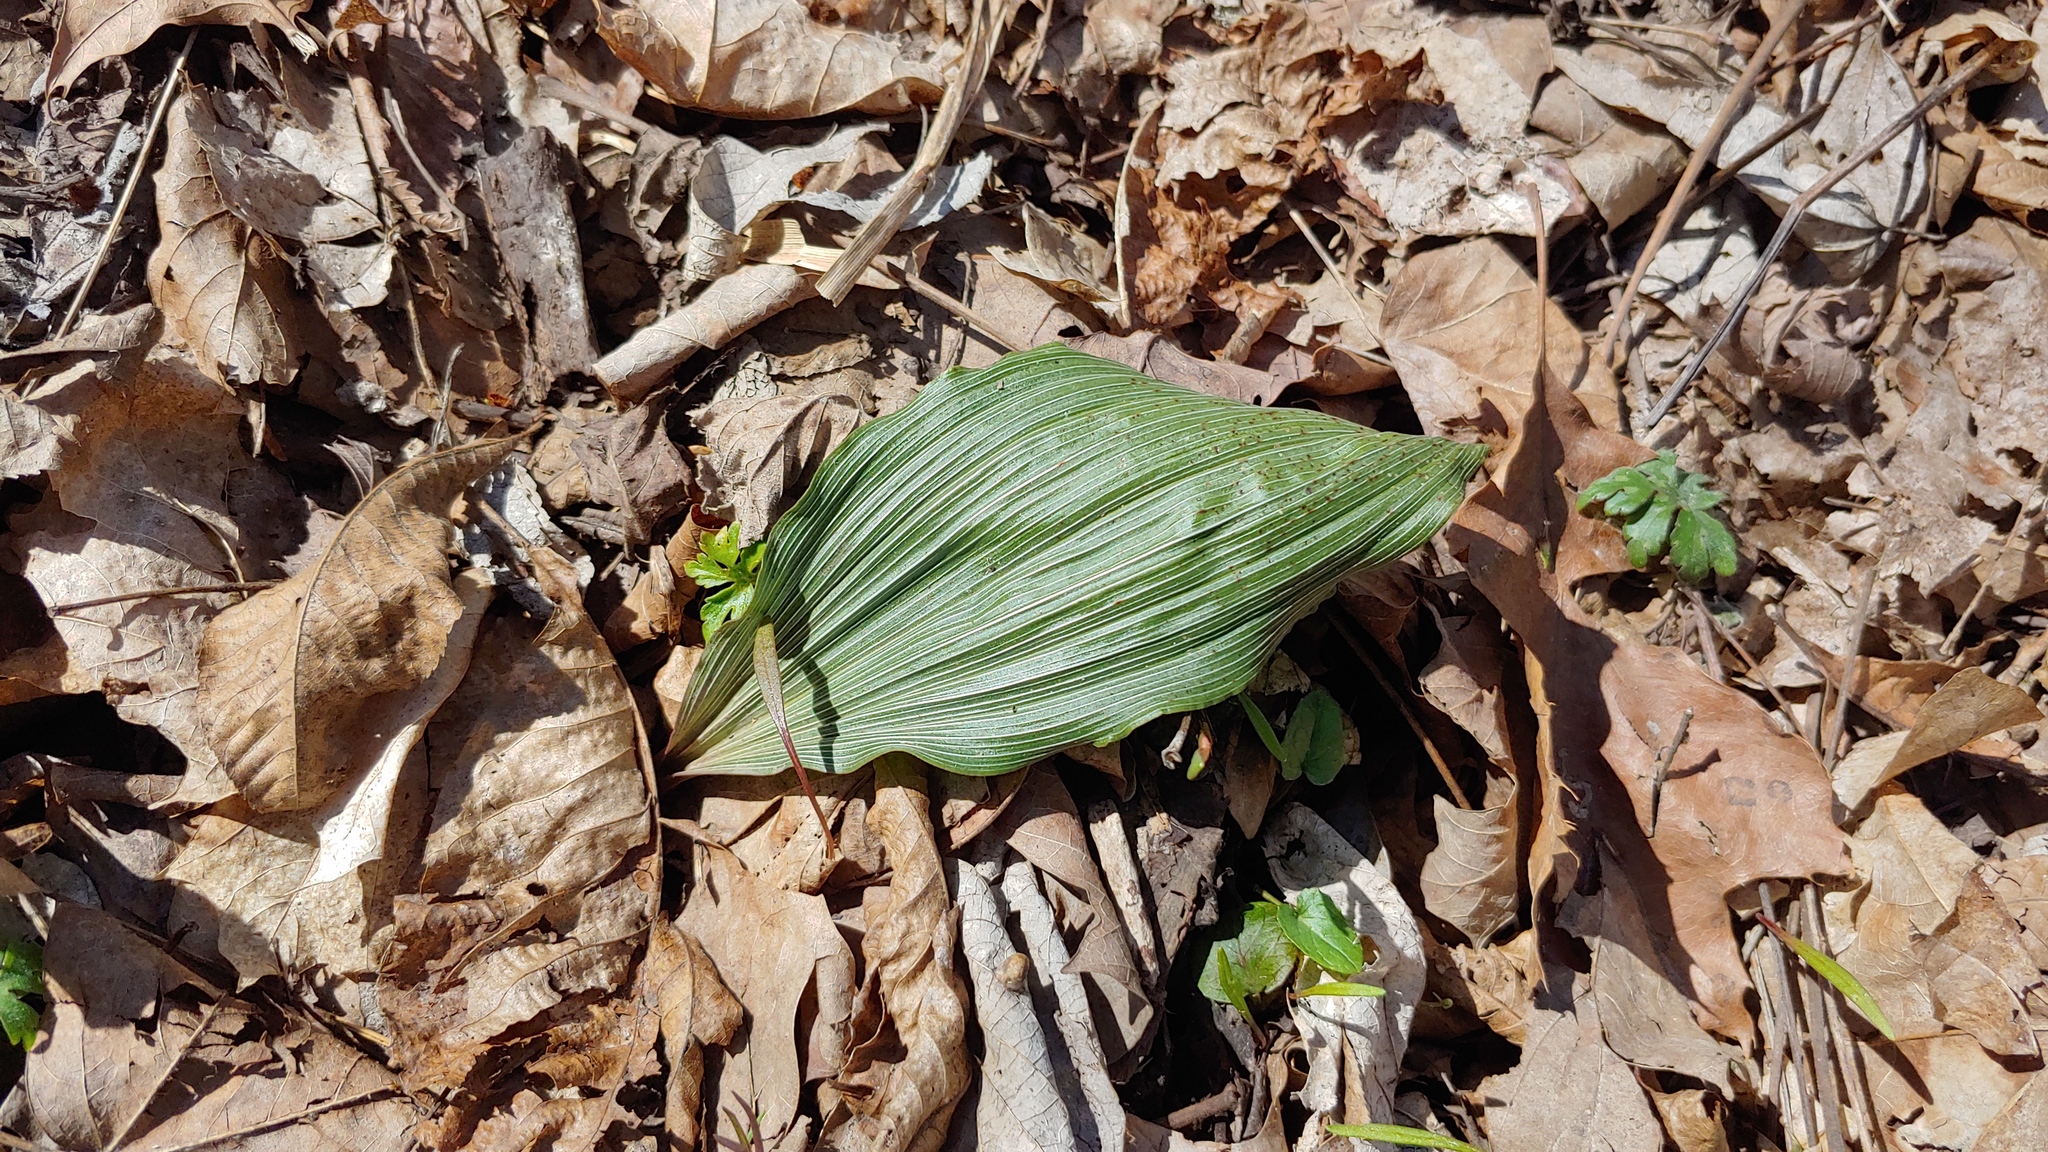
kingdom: Plantae
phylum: Tracheophyta
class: Liliopsida
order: Asparagales
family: Orchidaceae
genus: Aplectrum
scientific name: Aplectrum hyemale
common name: Adam-and-eve
